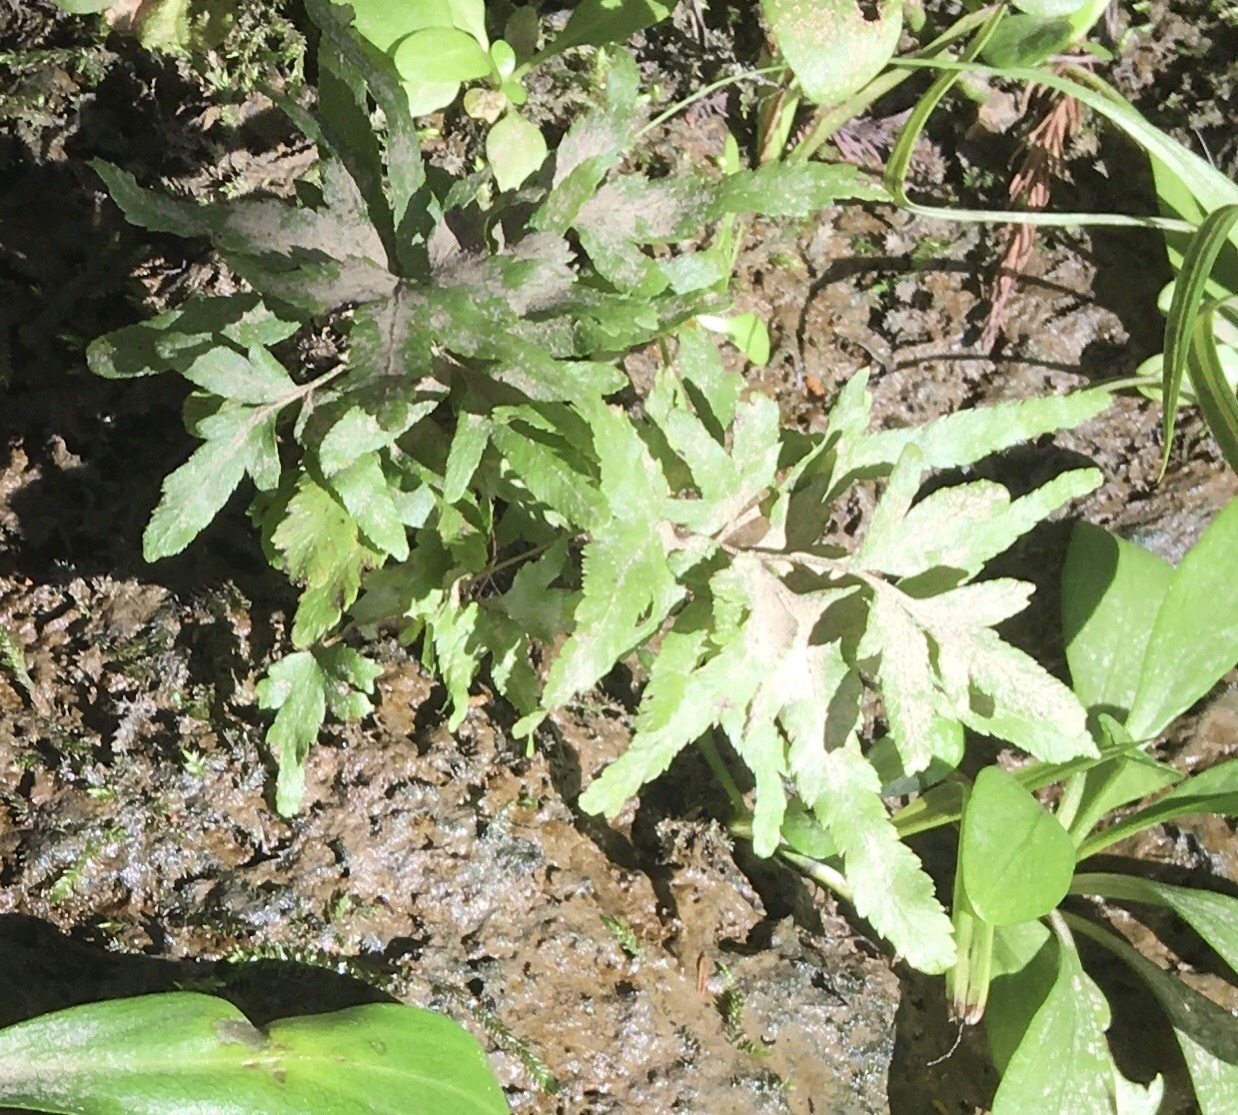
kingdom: Plantae
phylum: Tracheophyta
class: Polypodiopsida
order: Schizaeales
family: Lygodiaceae
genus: Lygodium
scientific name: Lygodium japonicum
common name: Japanese climbing fern
